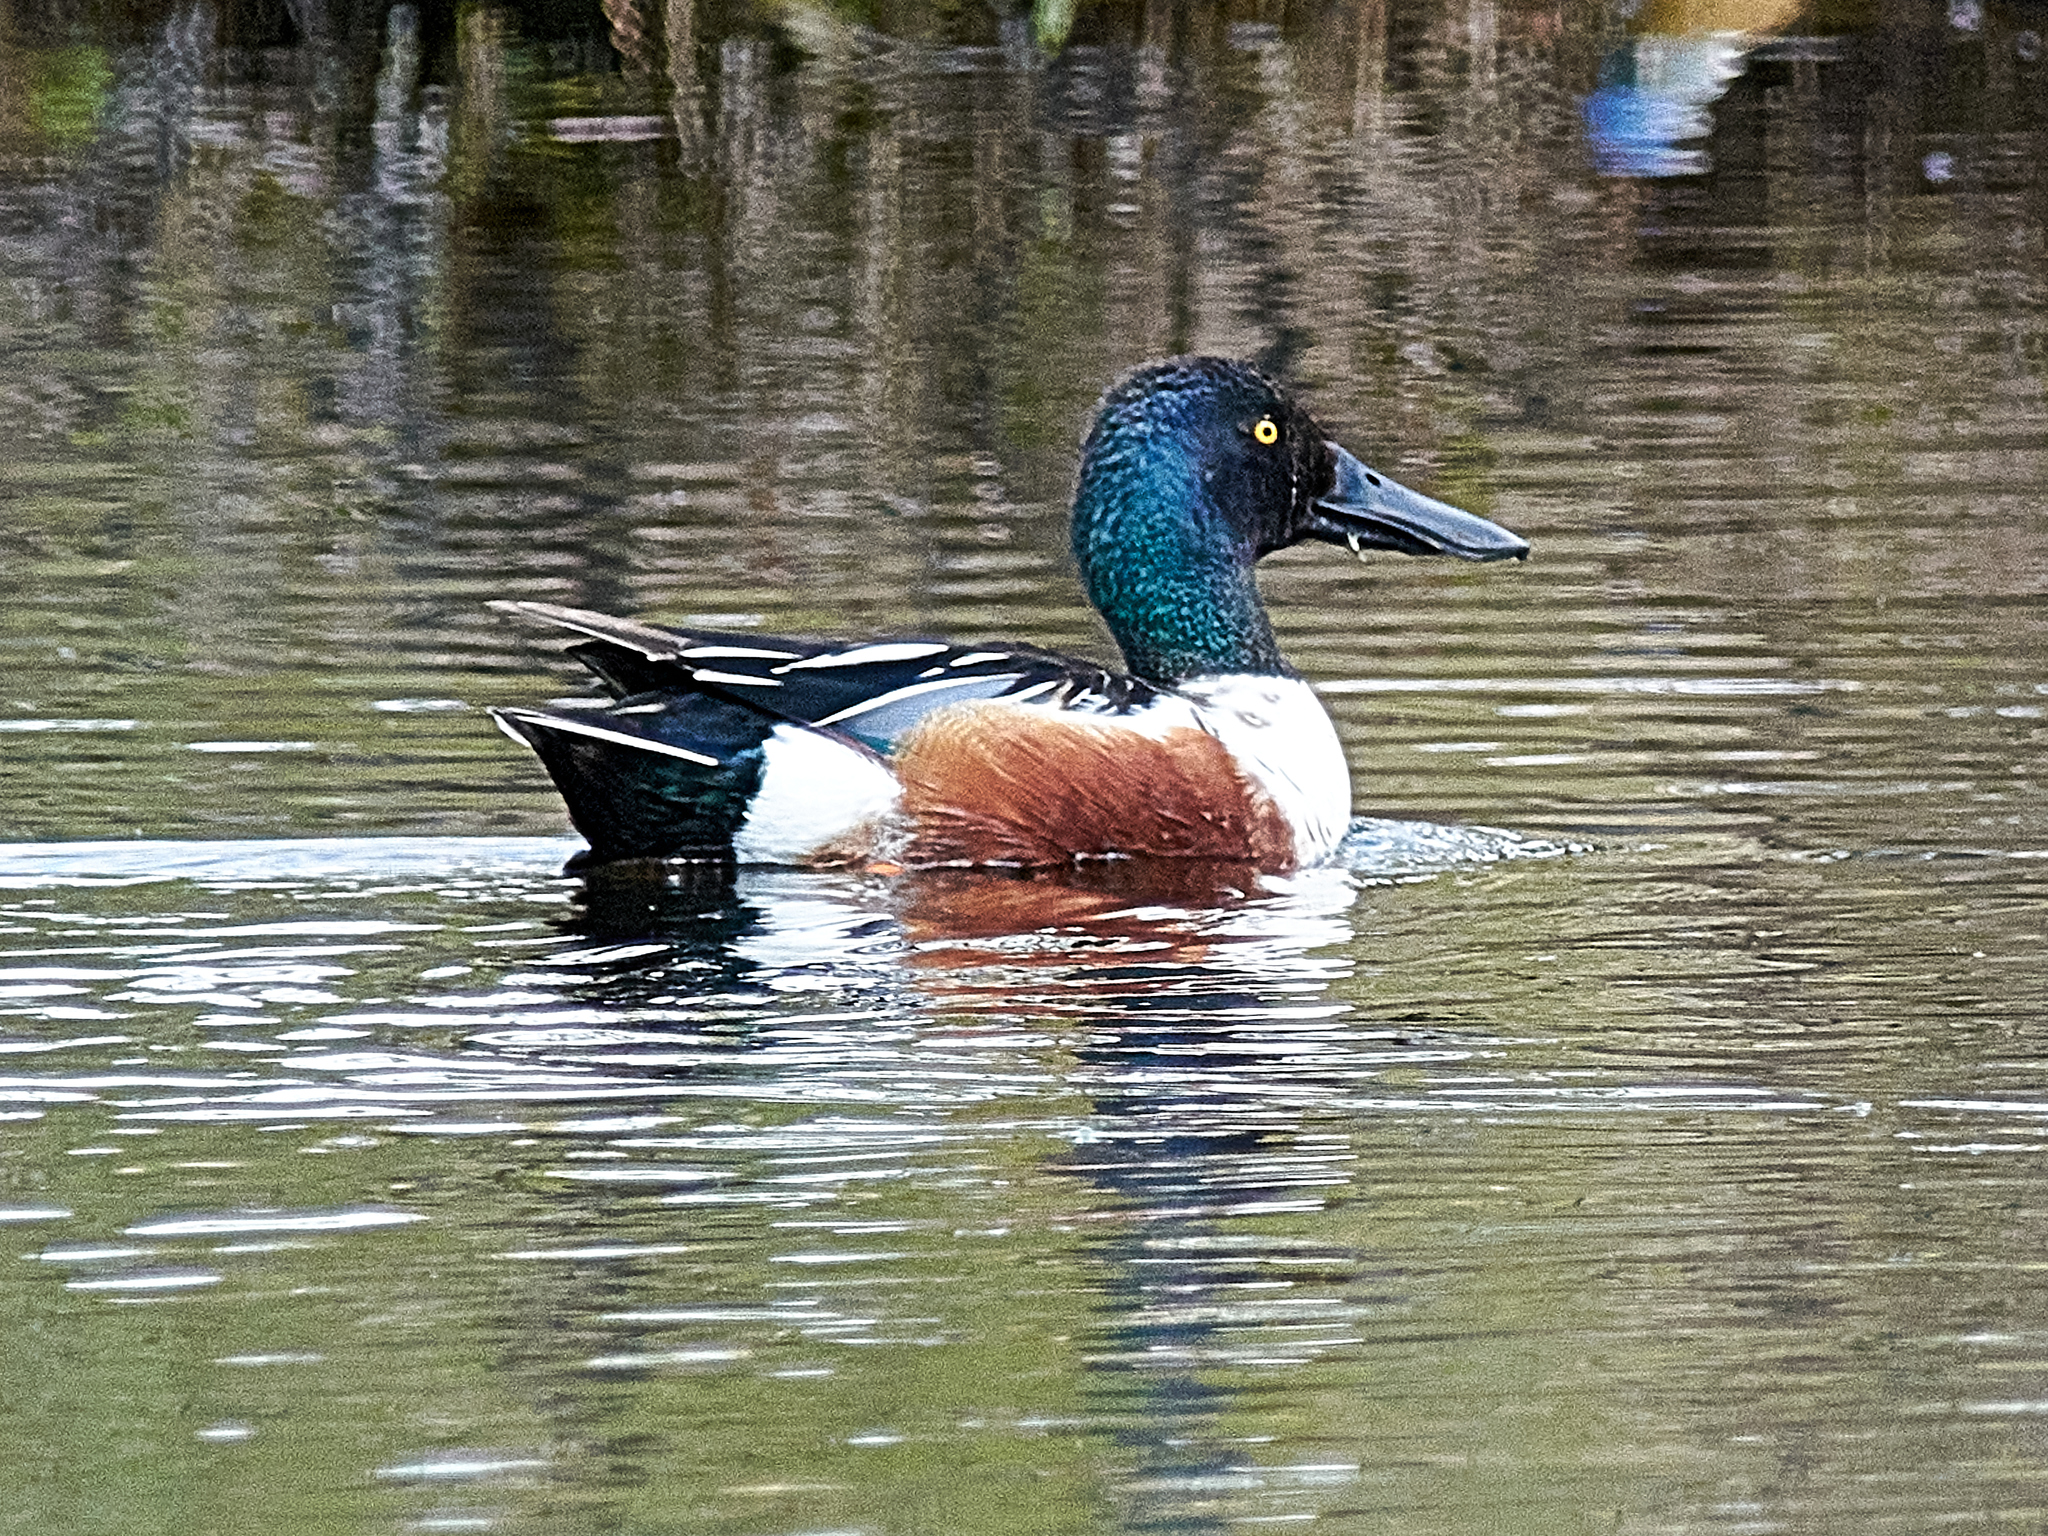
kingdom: Animalia
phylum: Chordata
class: Aves
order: Anseriformes
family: Anatidae
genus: Spatula
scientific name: Spatula clypeata
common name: Northern shoveler
